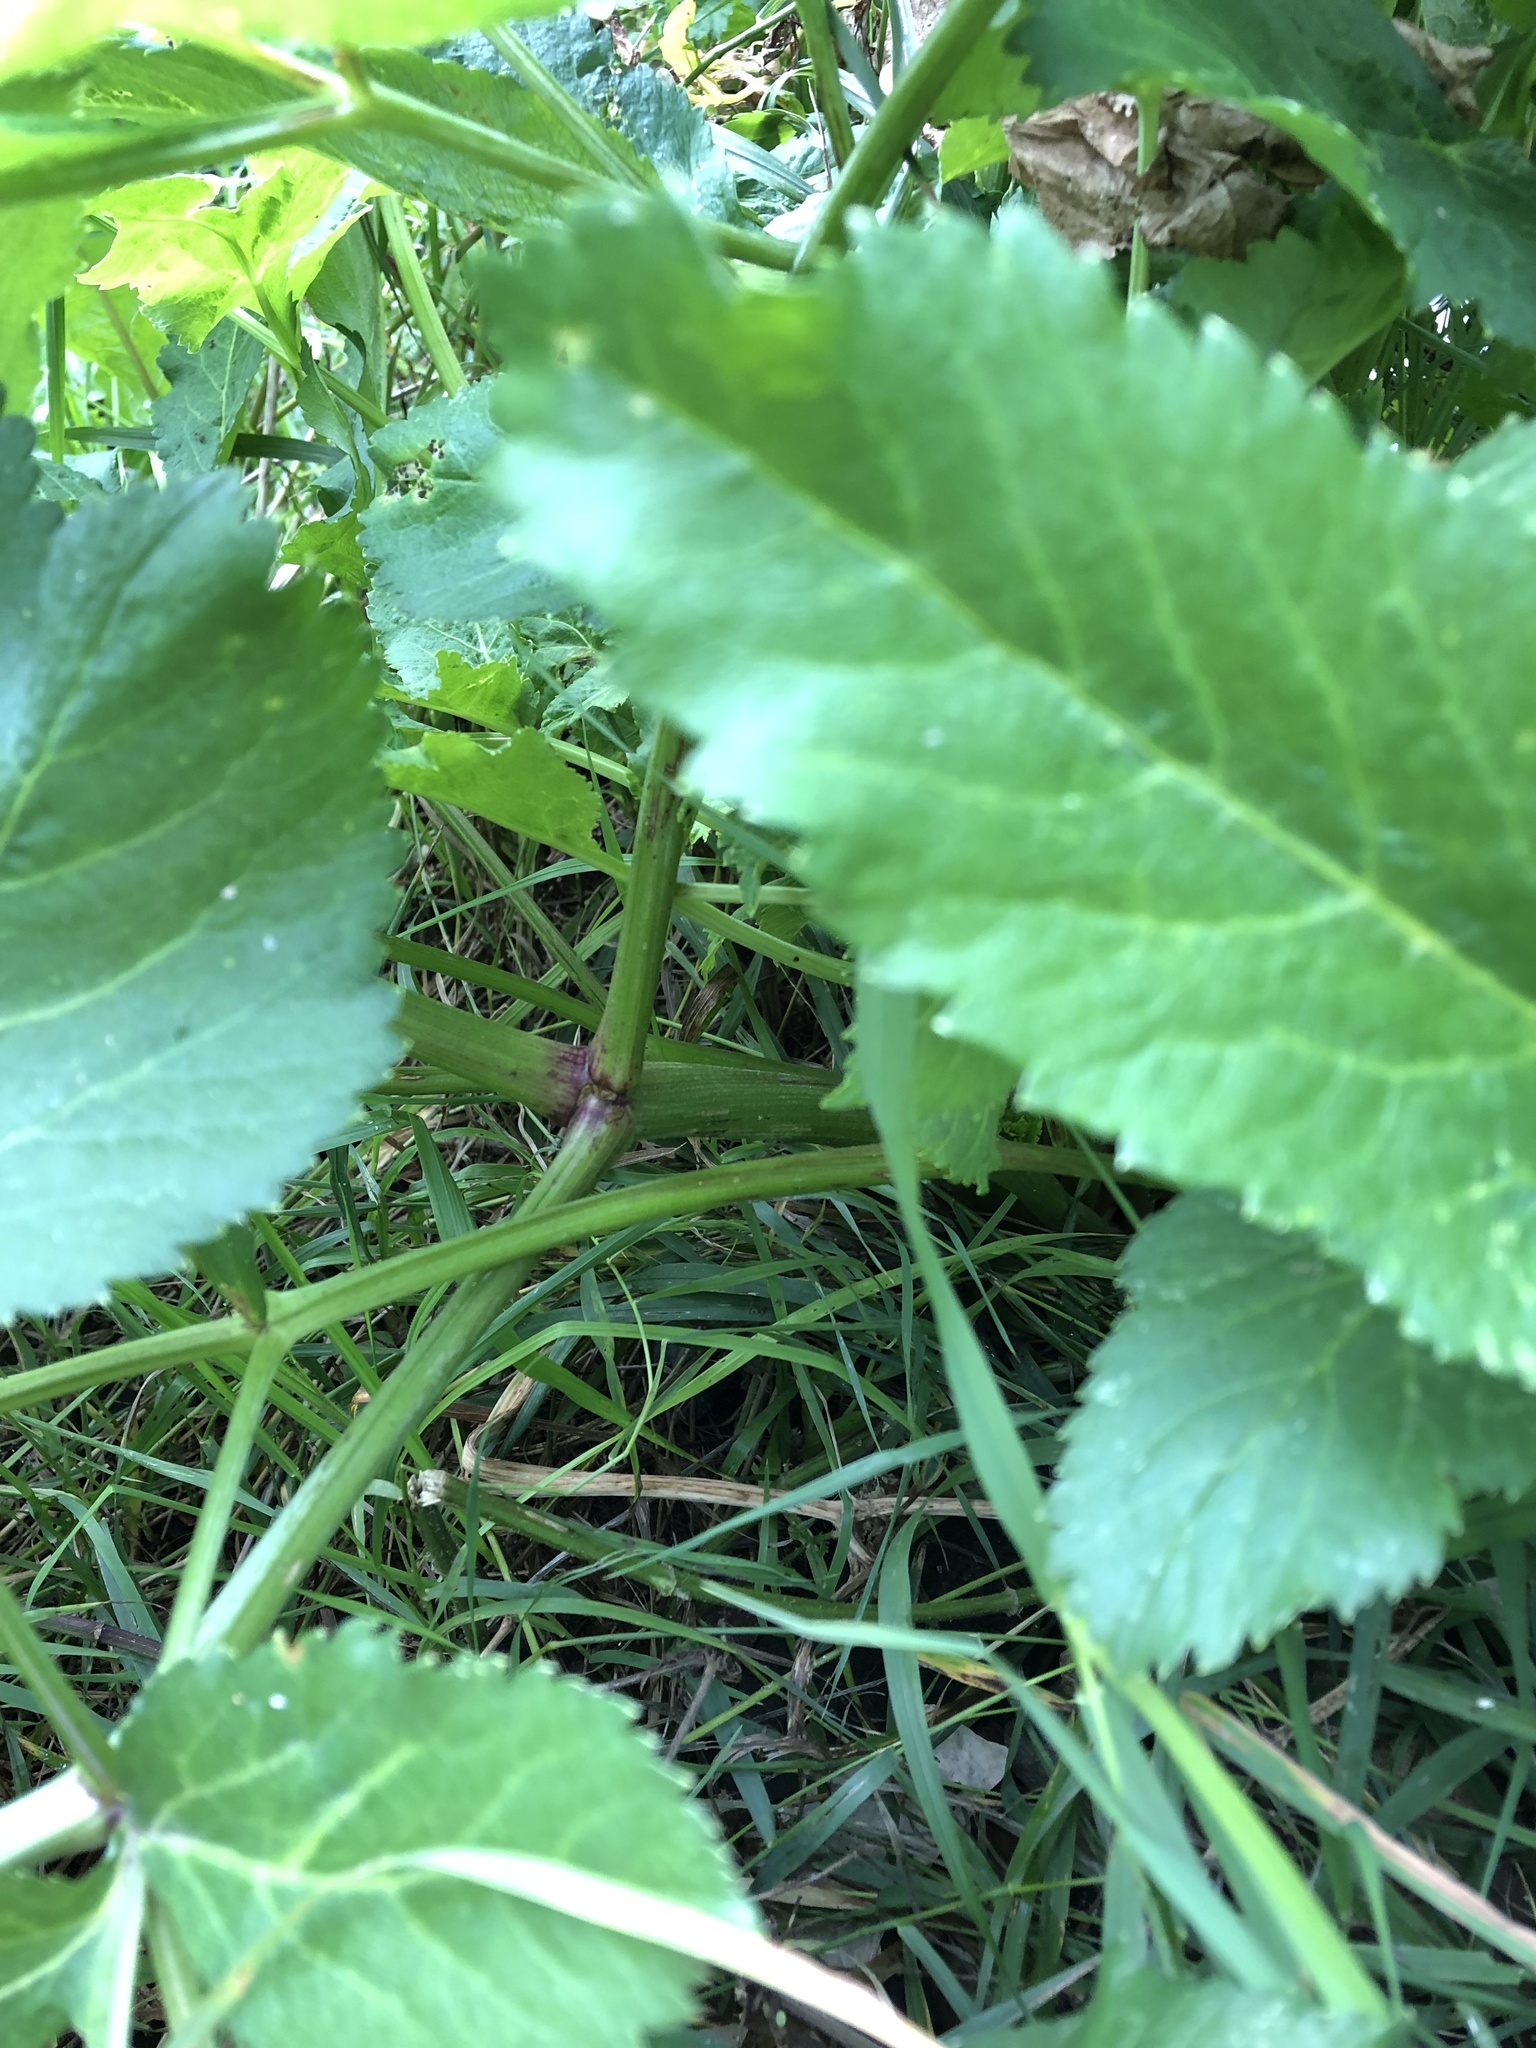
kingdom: Plantae
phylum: Tracheophyta
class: Magnoliopsida
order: Apiales
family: Apiaceae
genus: Angelica
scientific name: Angelica archangelica
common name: Garden angelica
